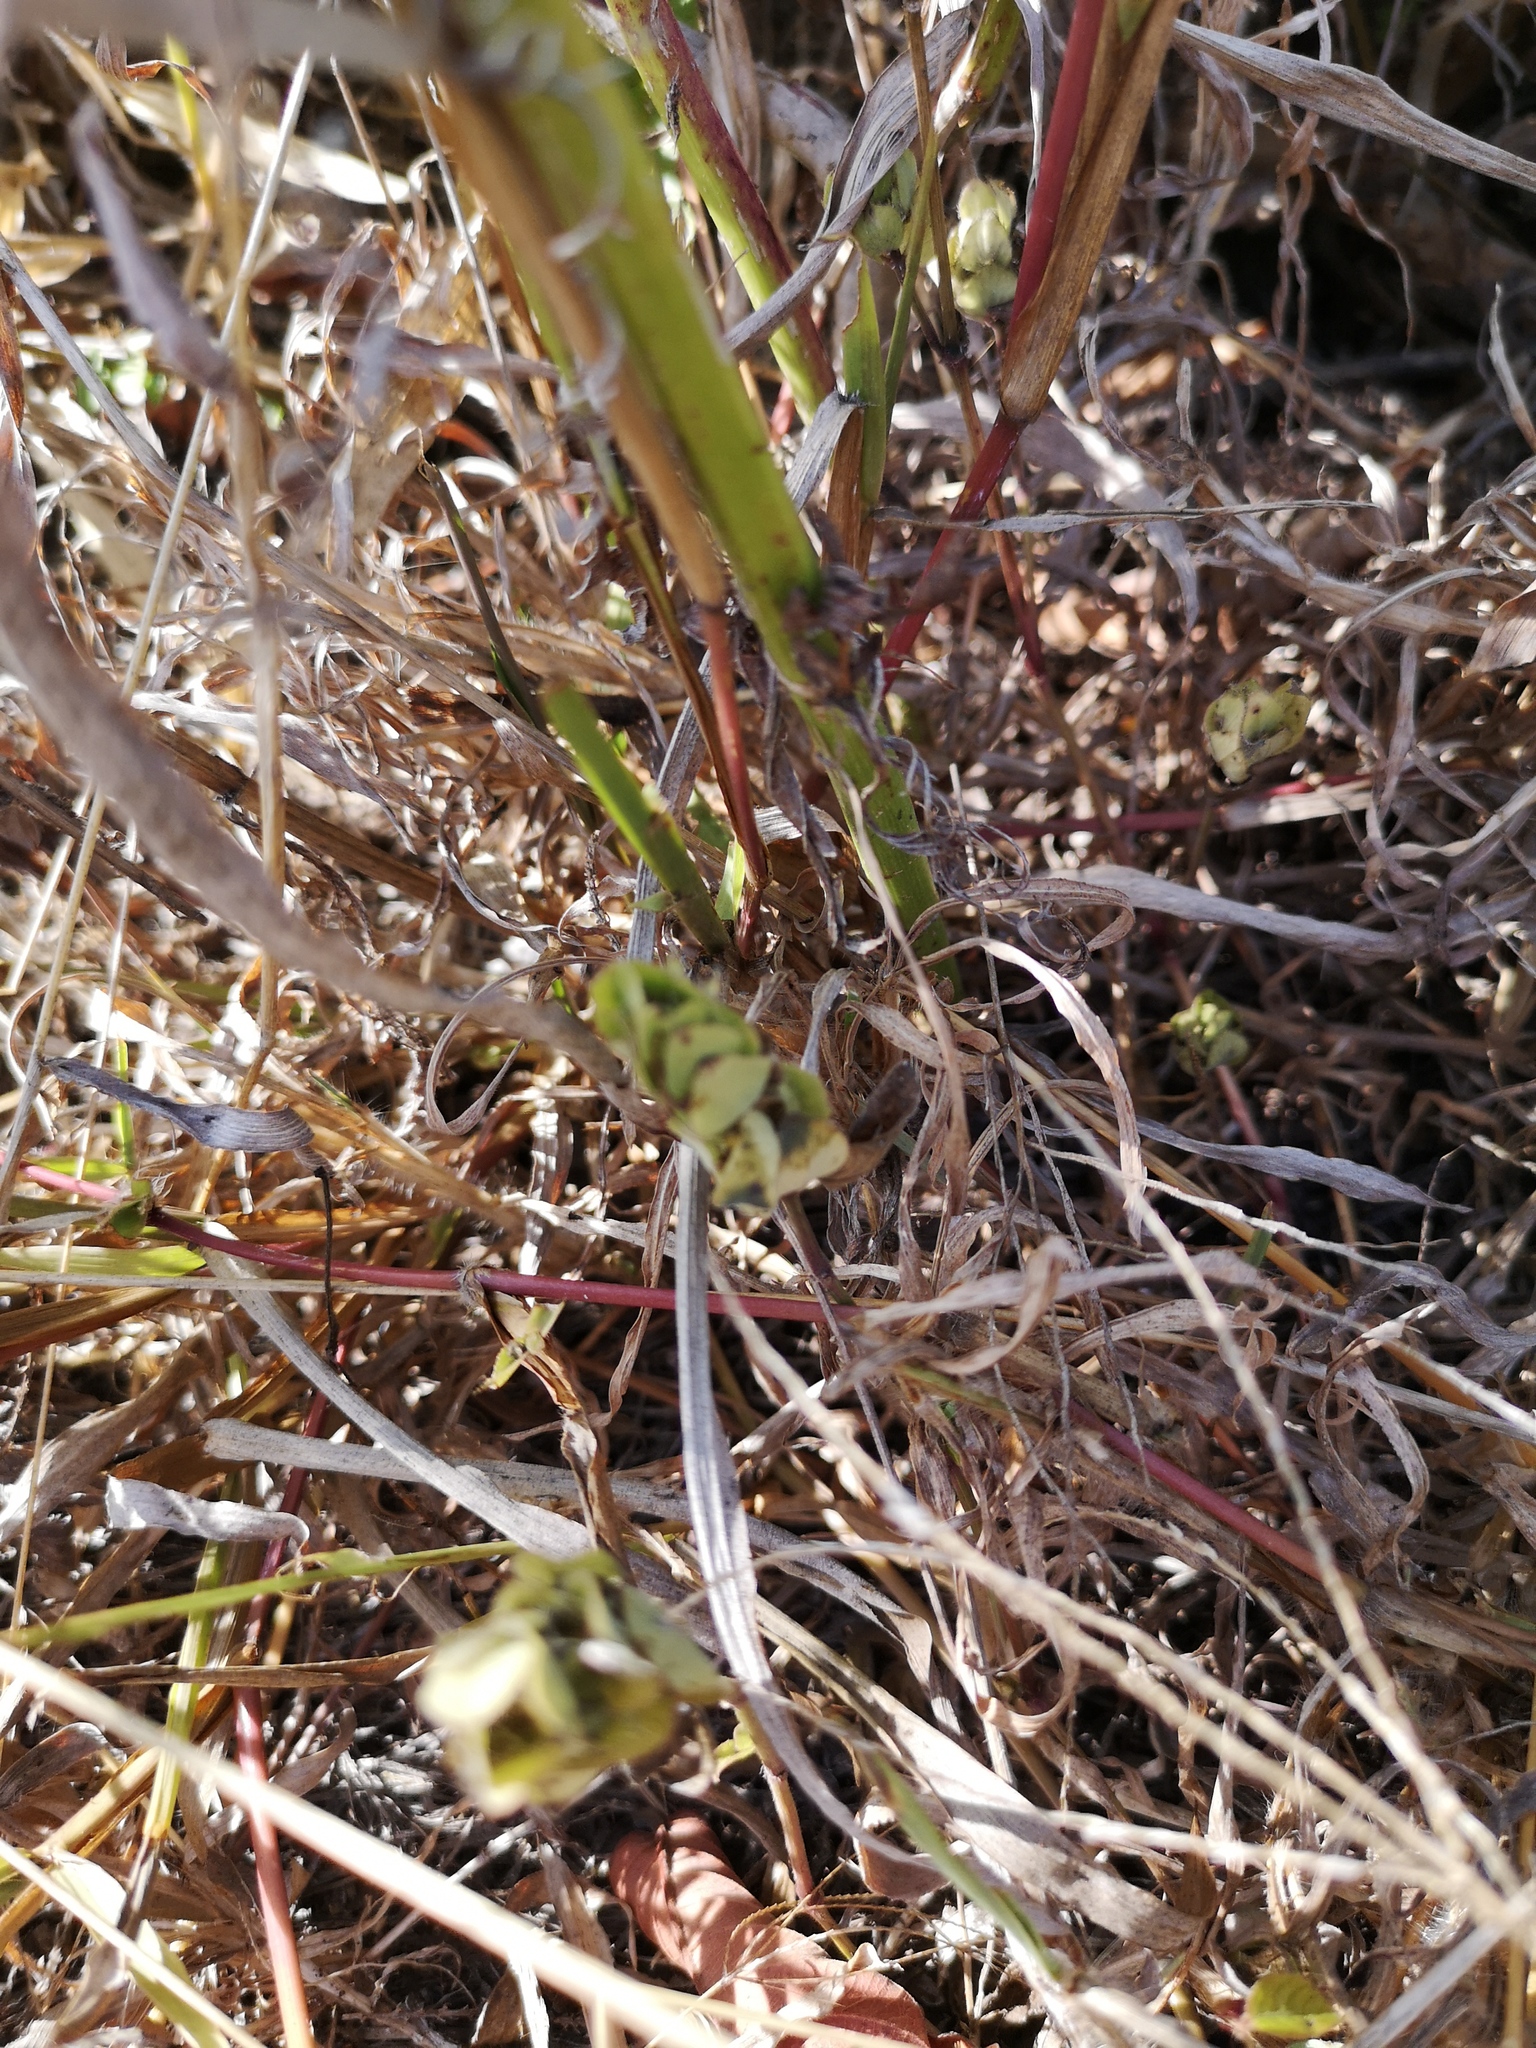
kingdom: Plantae
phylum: Tracheophyta
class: Magnoliopsida
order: Lamiales
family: Acanthaceae
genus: Ruellia
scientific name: Ruellia blechum
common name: Browne's blechum
